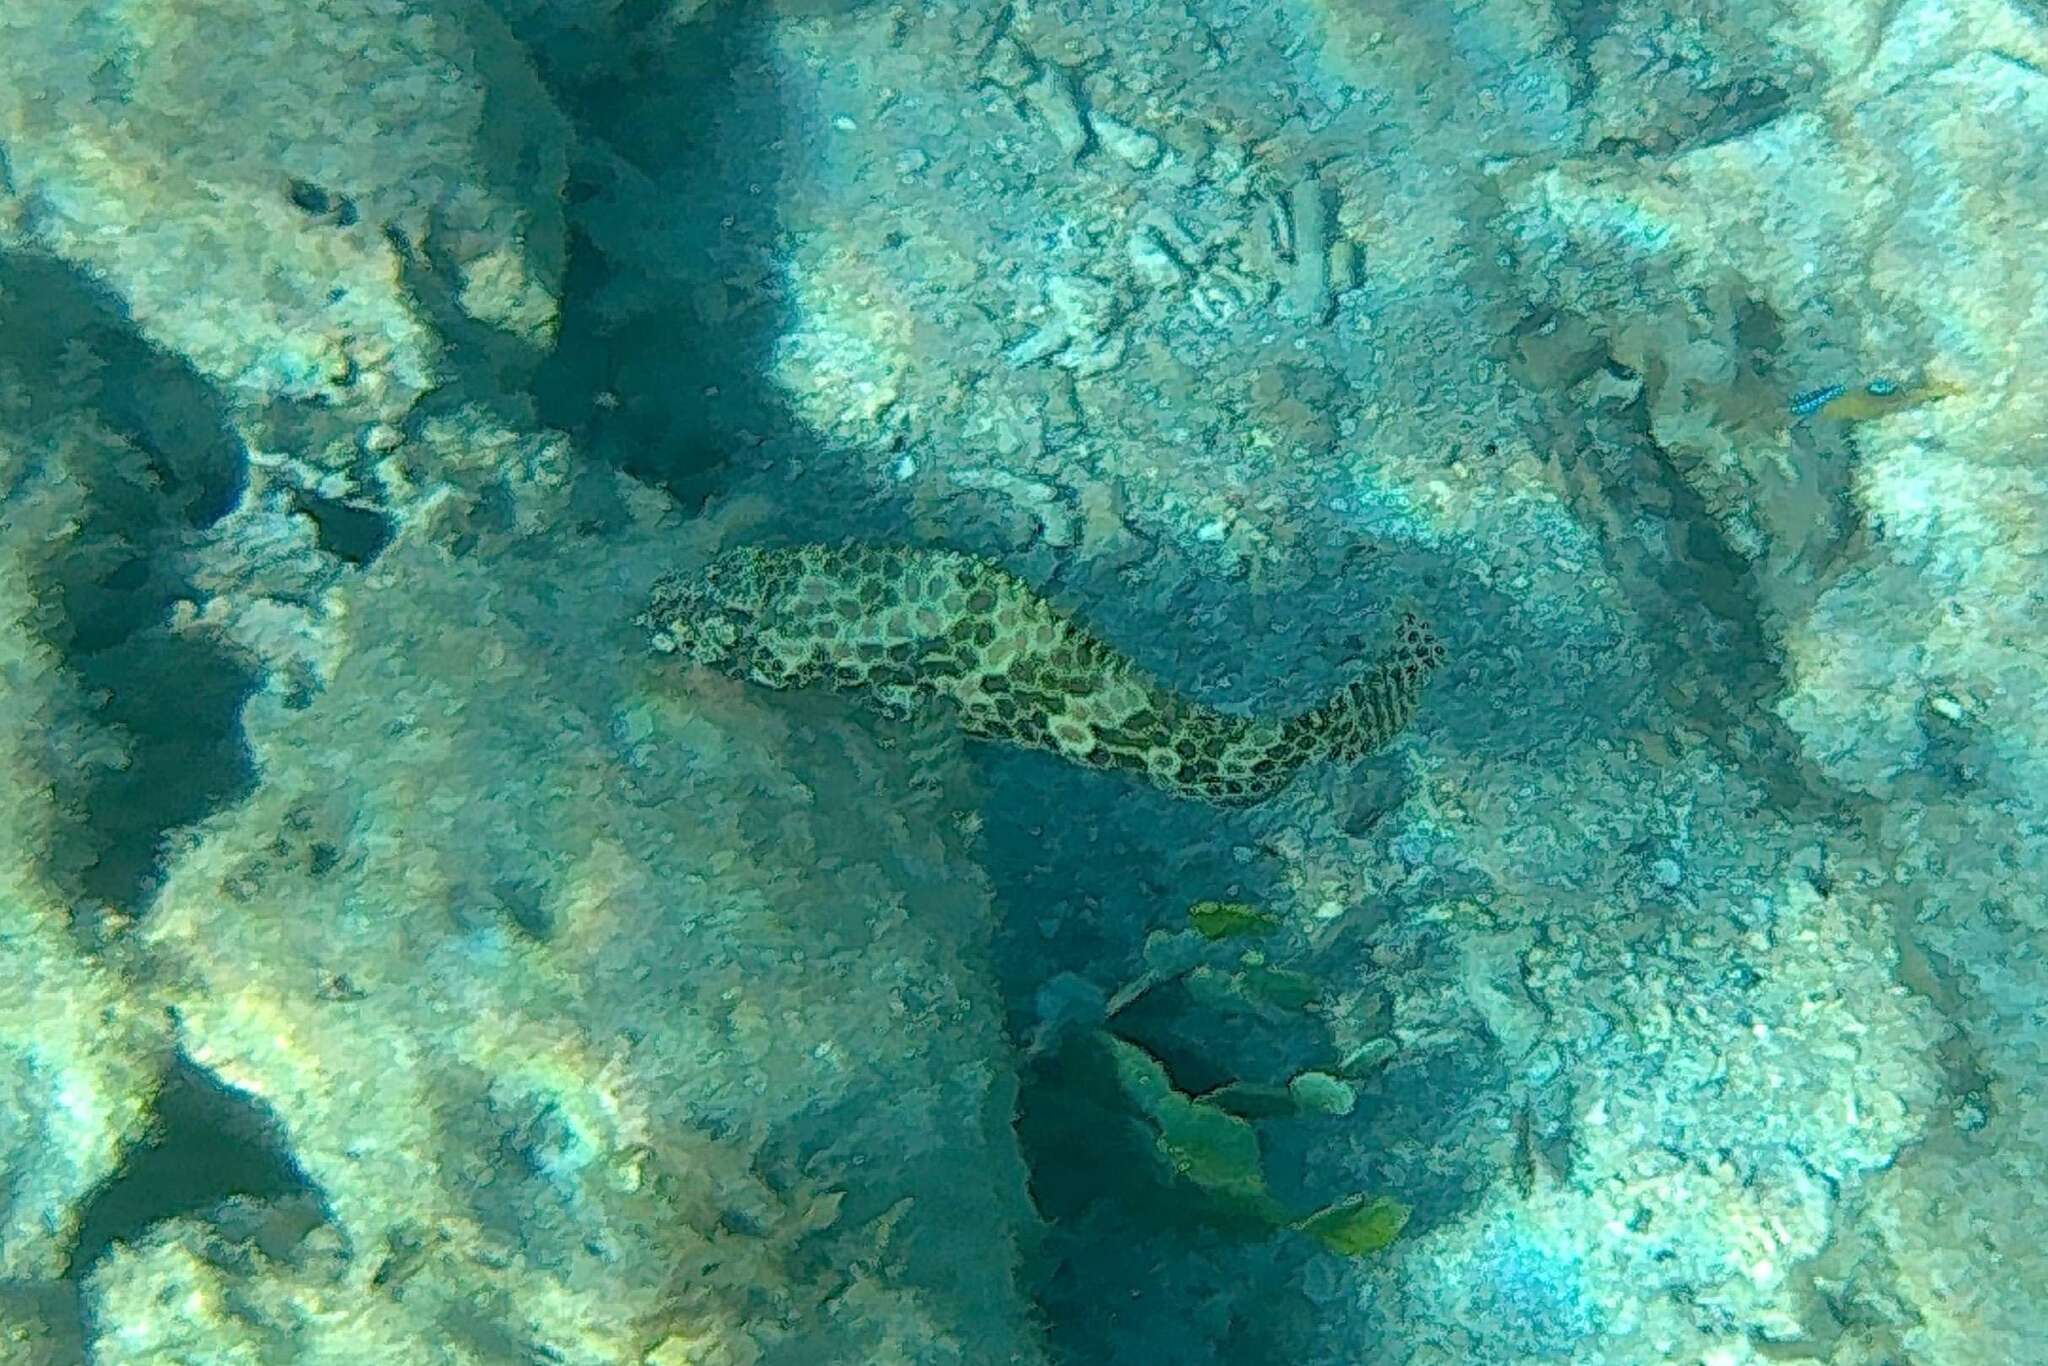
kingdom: Animalia
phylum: Chordata
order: Perciformes
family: Serranidae
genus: Epinephelus
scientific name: Epinephelus merra
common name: Honeycomb grouper
